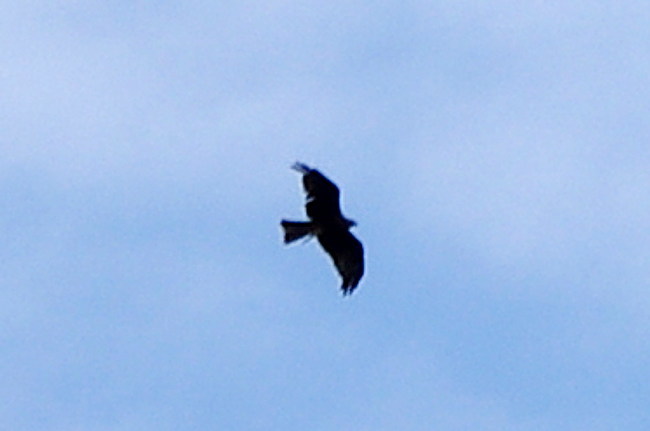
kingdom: Animalia
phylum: Chordata
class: Aves
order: Accipitriformes
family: Accipitridae
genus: Milvus
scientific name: Milvus migrans
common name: Black kite
